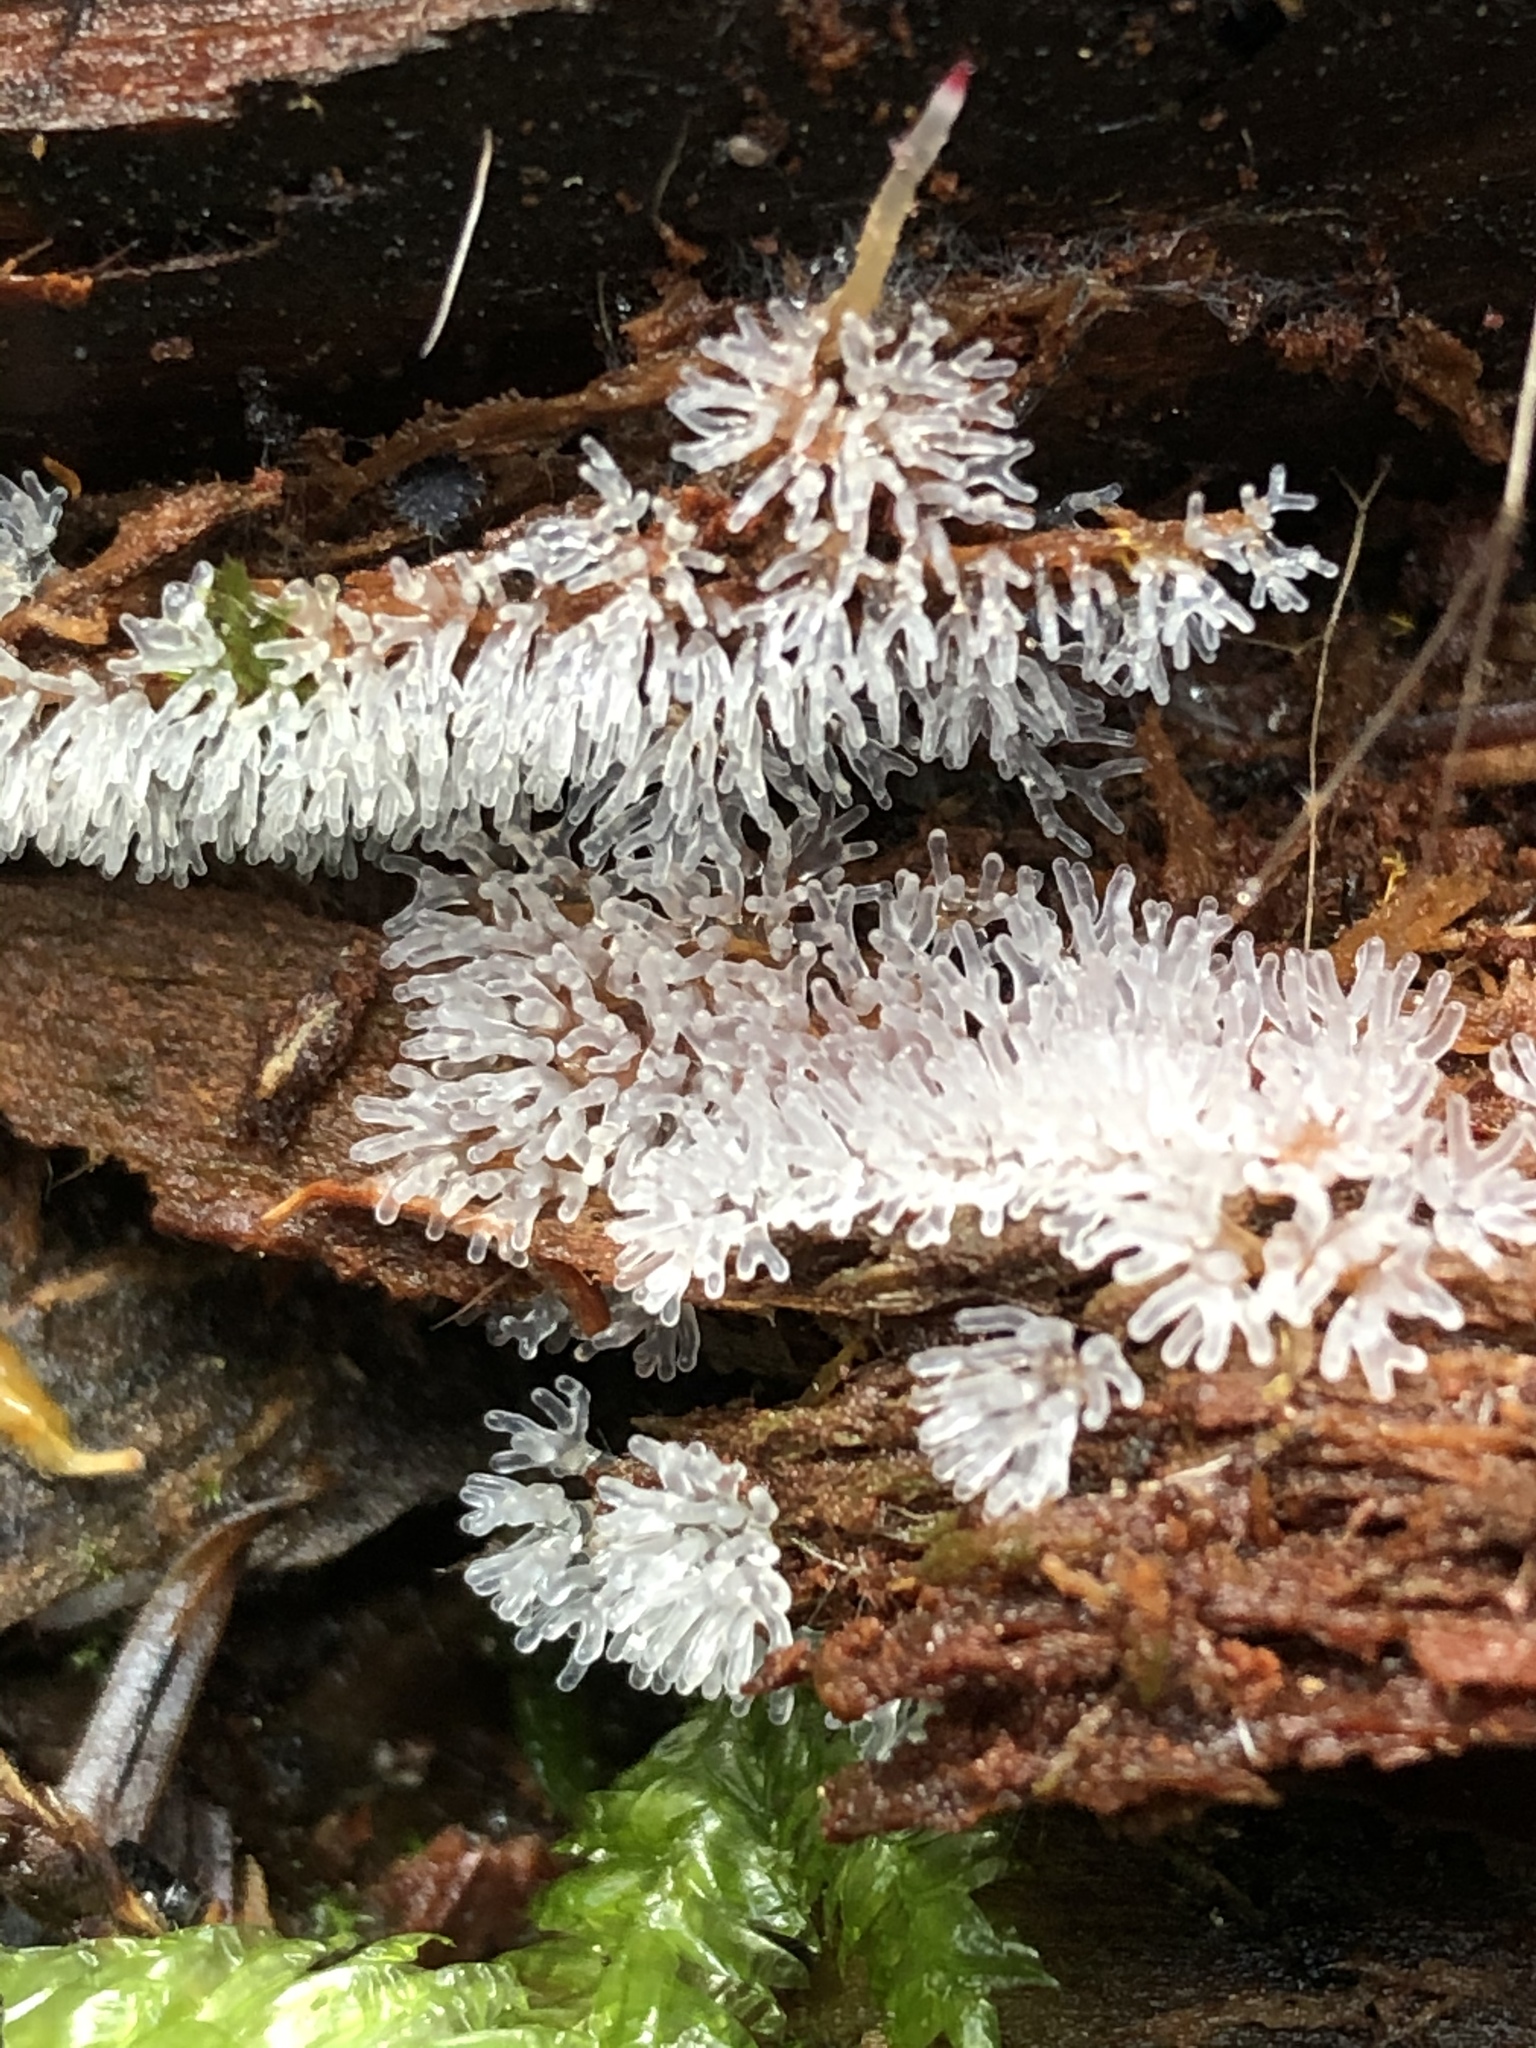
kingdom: Protozoa
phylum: Mycetozoa
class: Protosteliomycetes
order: Ceratiomyxales
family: Ceratiomyxaceae
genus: Ceratiomyxa
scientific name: Ceratiomyxa fruticulosa
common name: Honeycomb coral slime mold
